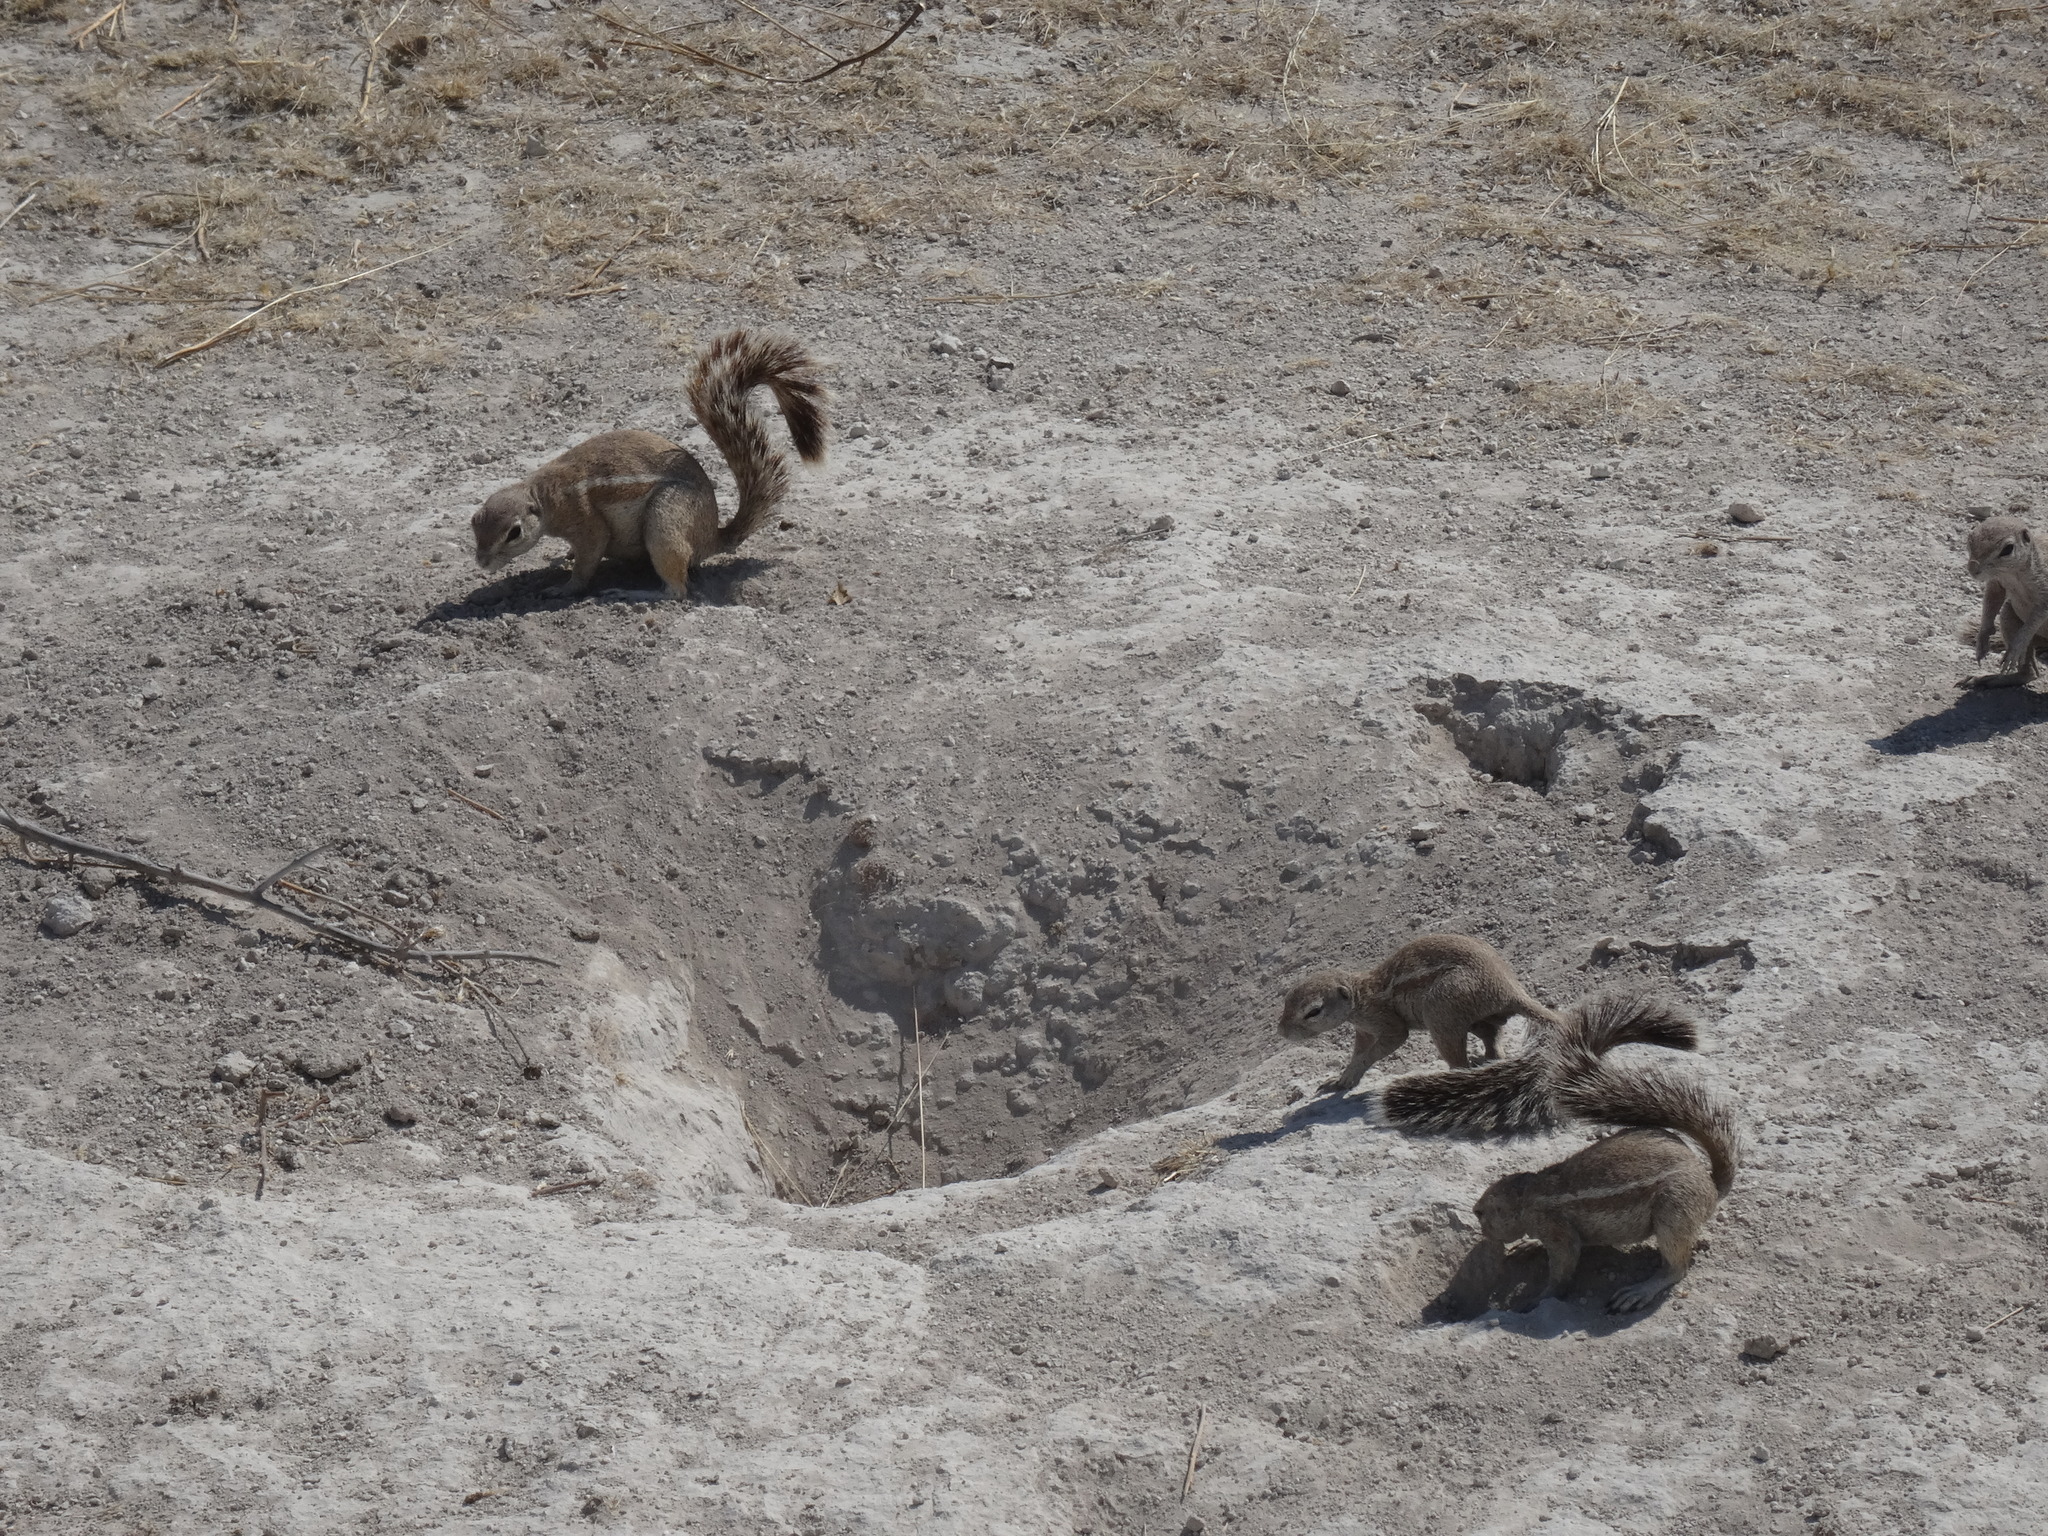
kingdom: Animalia
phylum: Chordata
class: Mammalia
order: Rodentia
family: Sciuridae
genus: Xerus
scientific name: Xerus inauris
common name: South african ground squirrel
